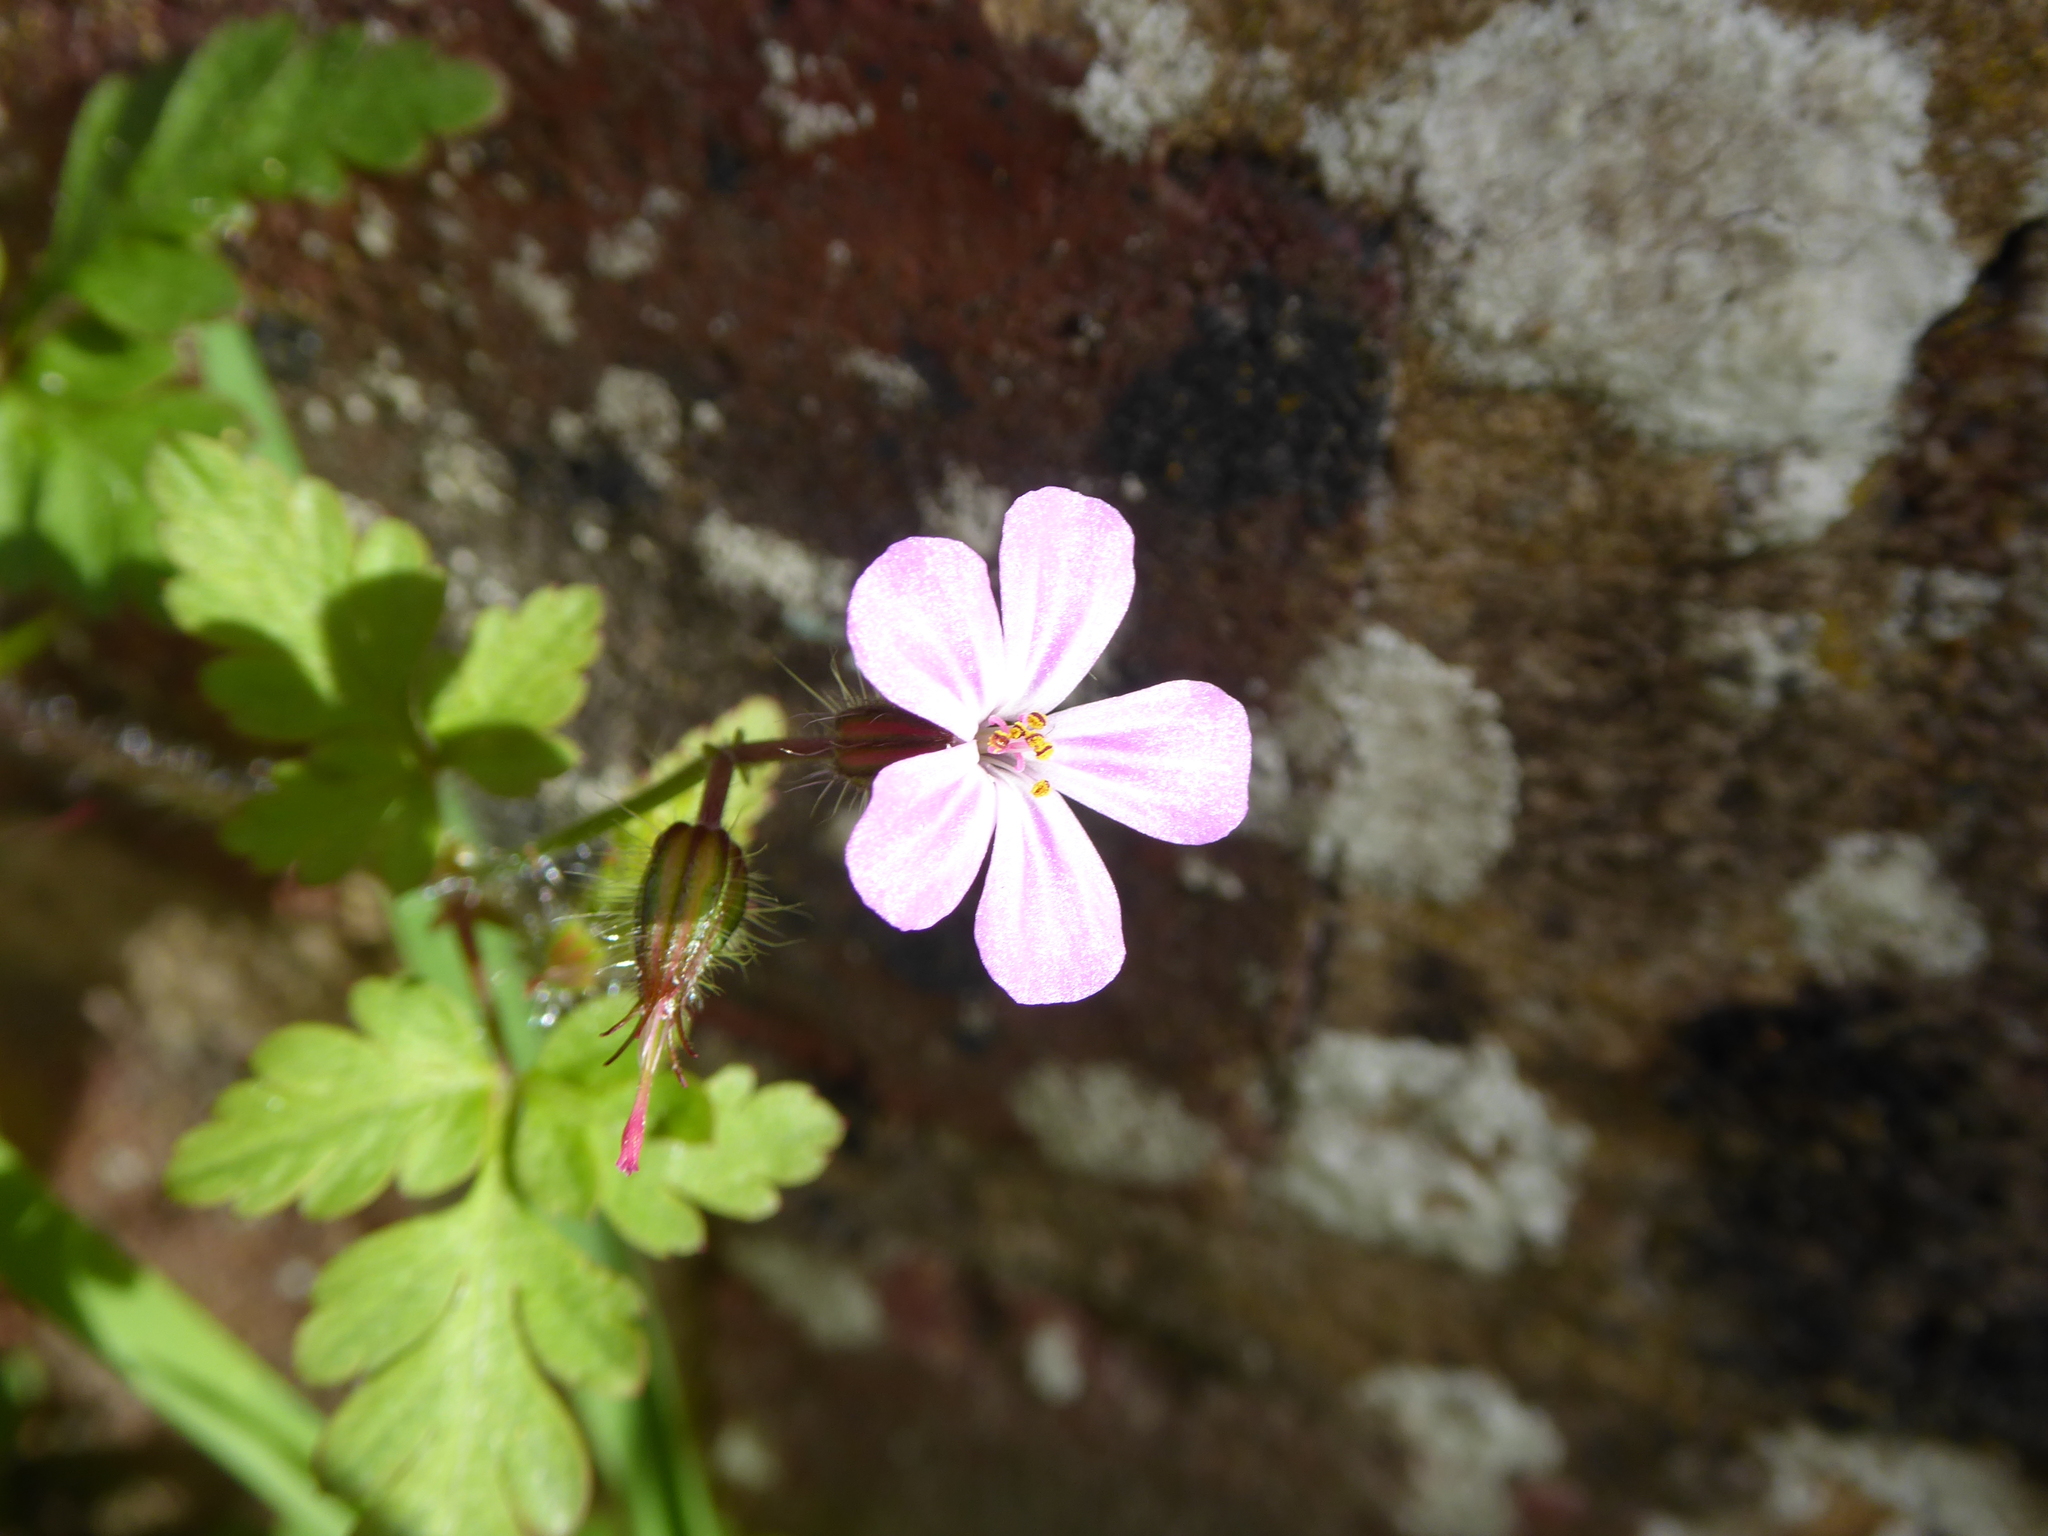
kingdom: Plantae
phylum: Tracheophyta
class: Magnoliopsida
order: Geraniales
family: Geraniaceae
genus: Geranium
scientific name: Geranium robertianum
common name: Herb-robert
